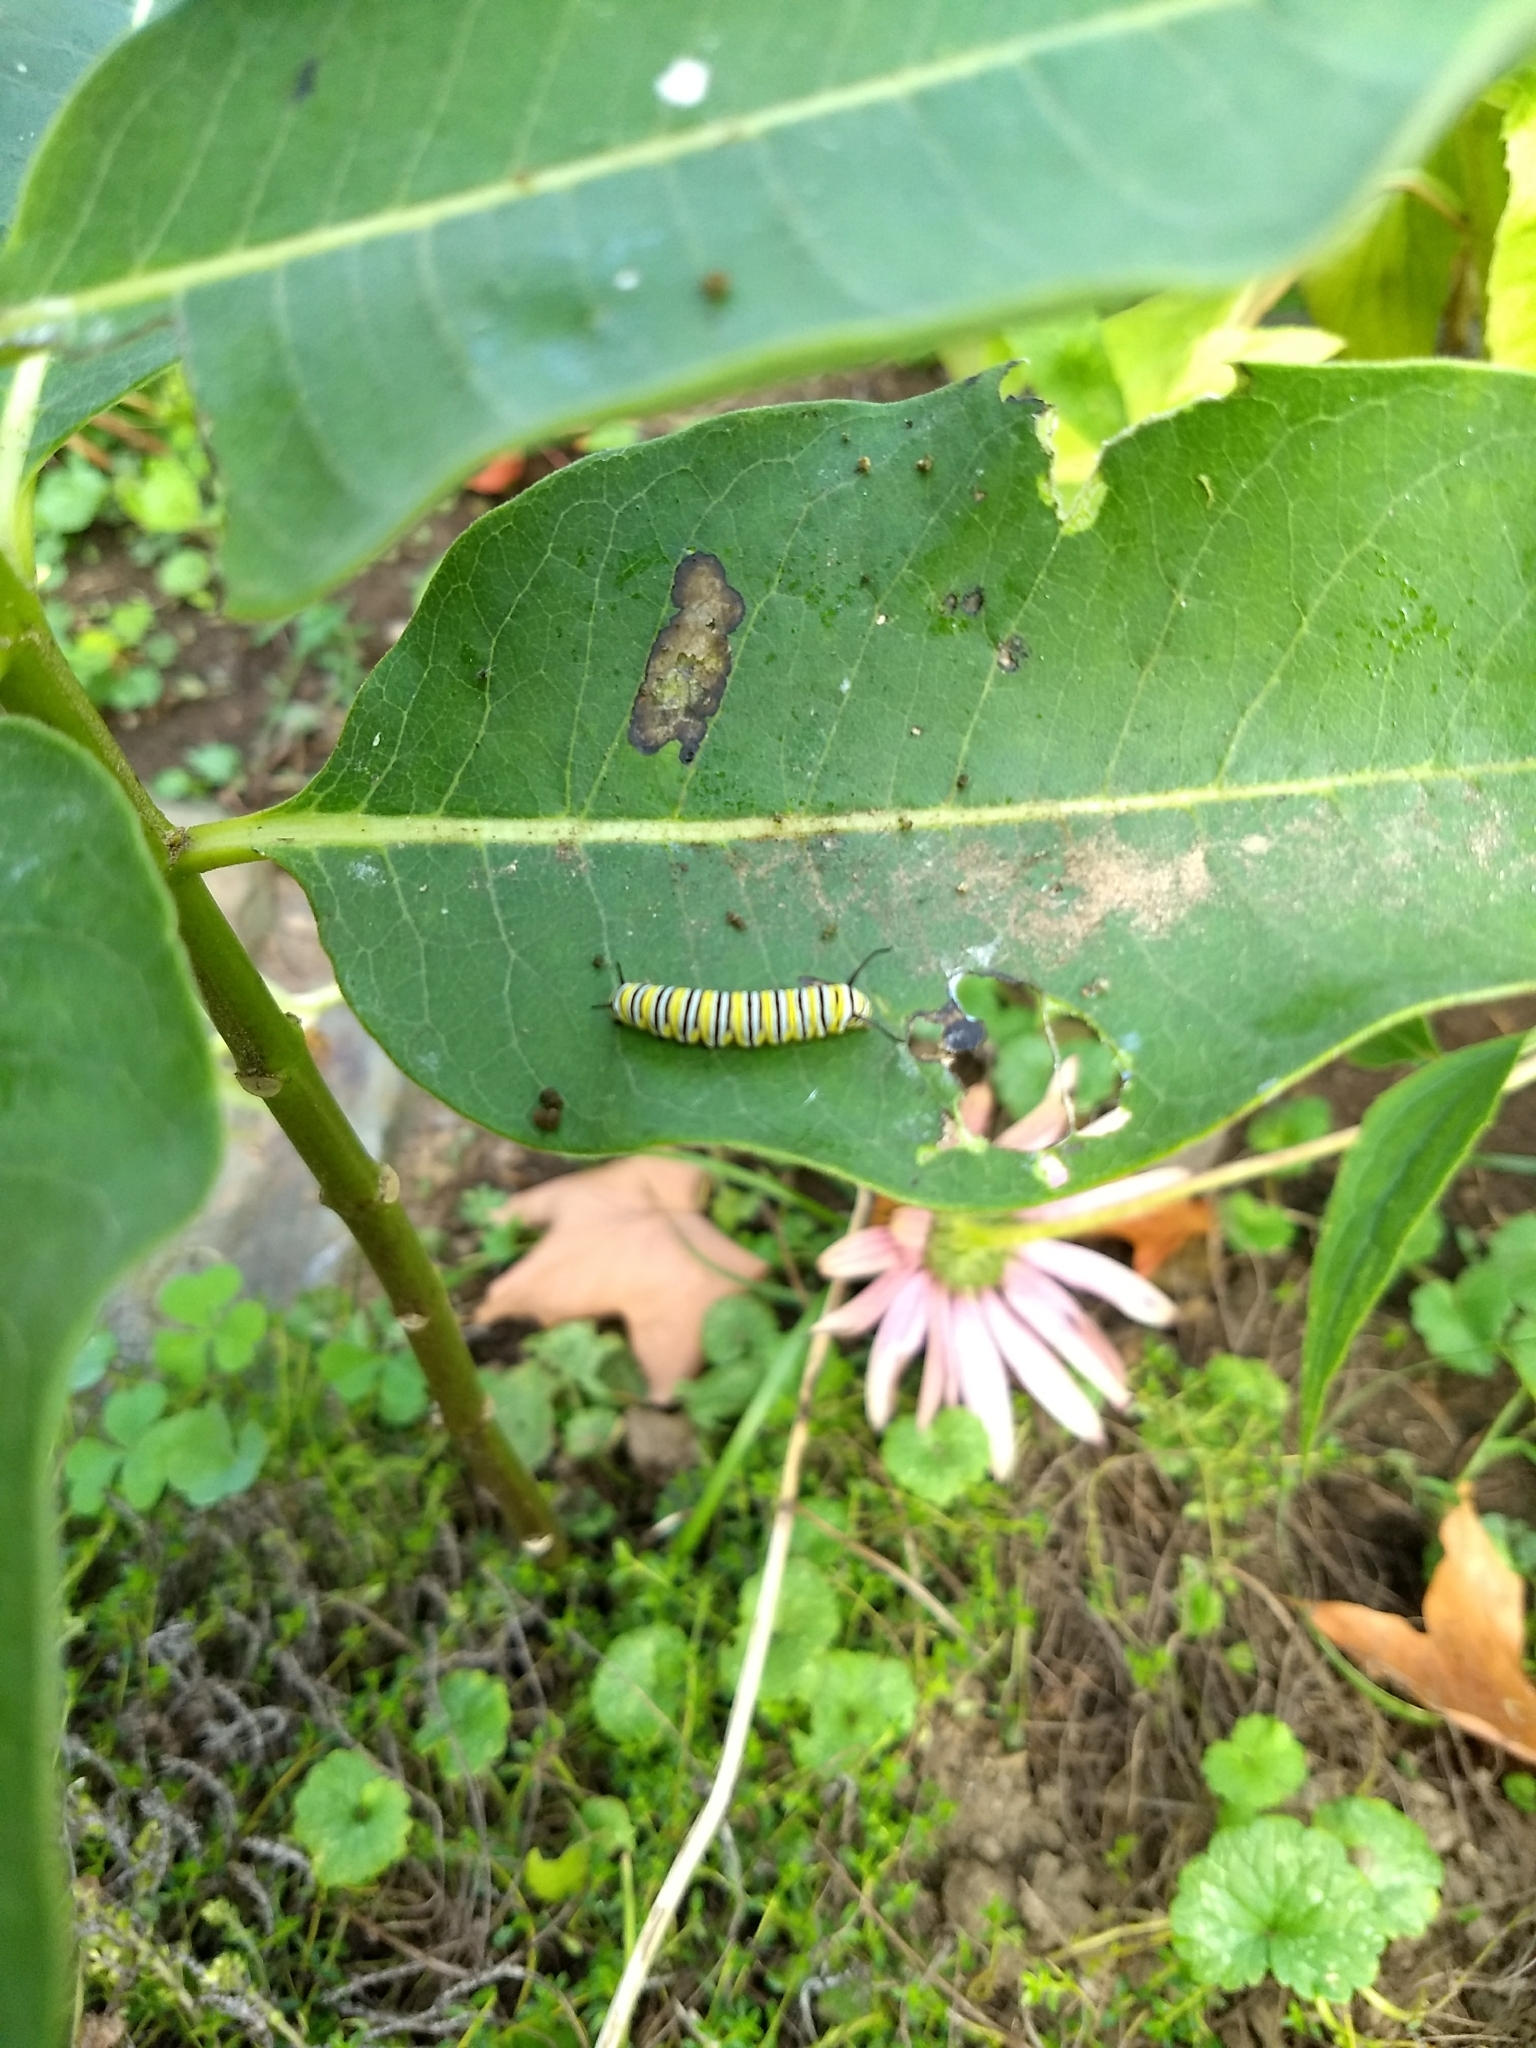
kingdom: Animalia
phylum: Arthropoda
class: Insecta
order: Lepidoptera
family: Nymphalidae
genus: Danaus
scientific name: Danaus plexippus
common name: Monarch
